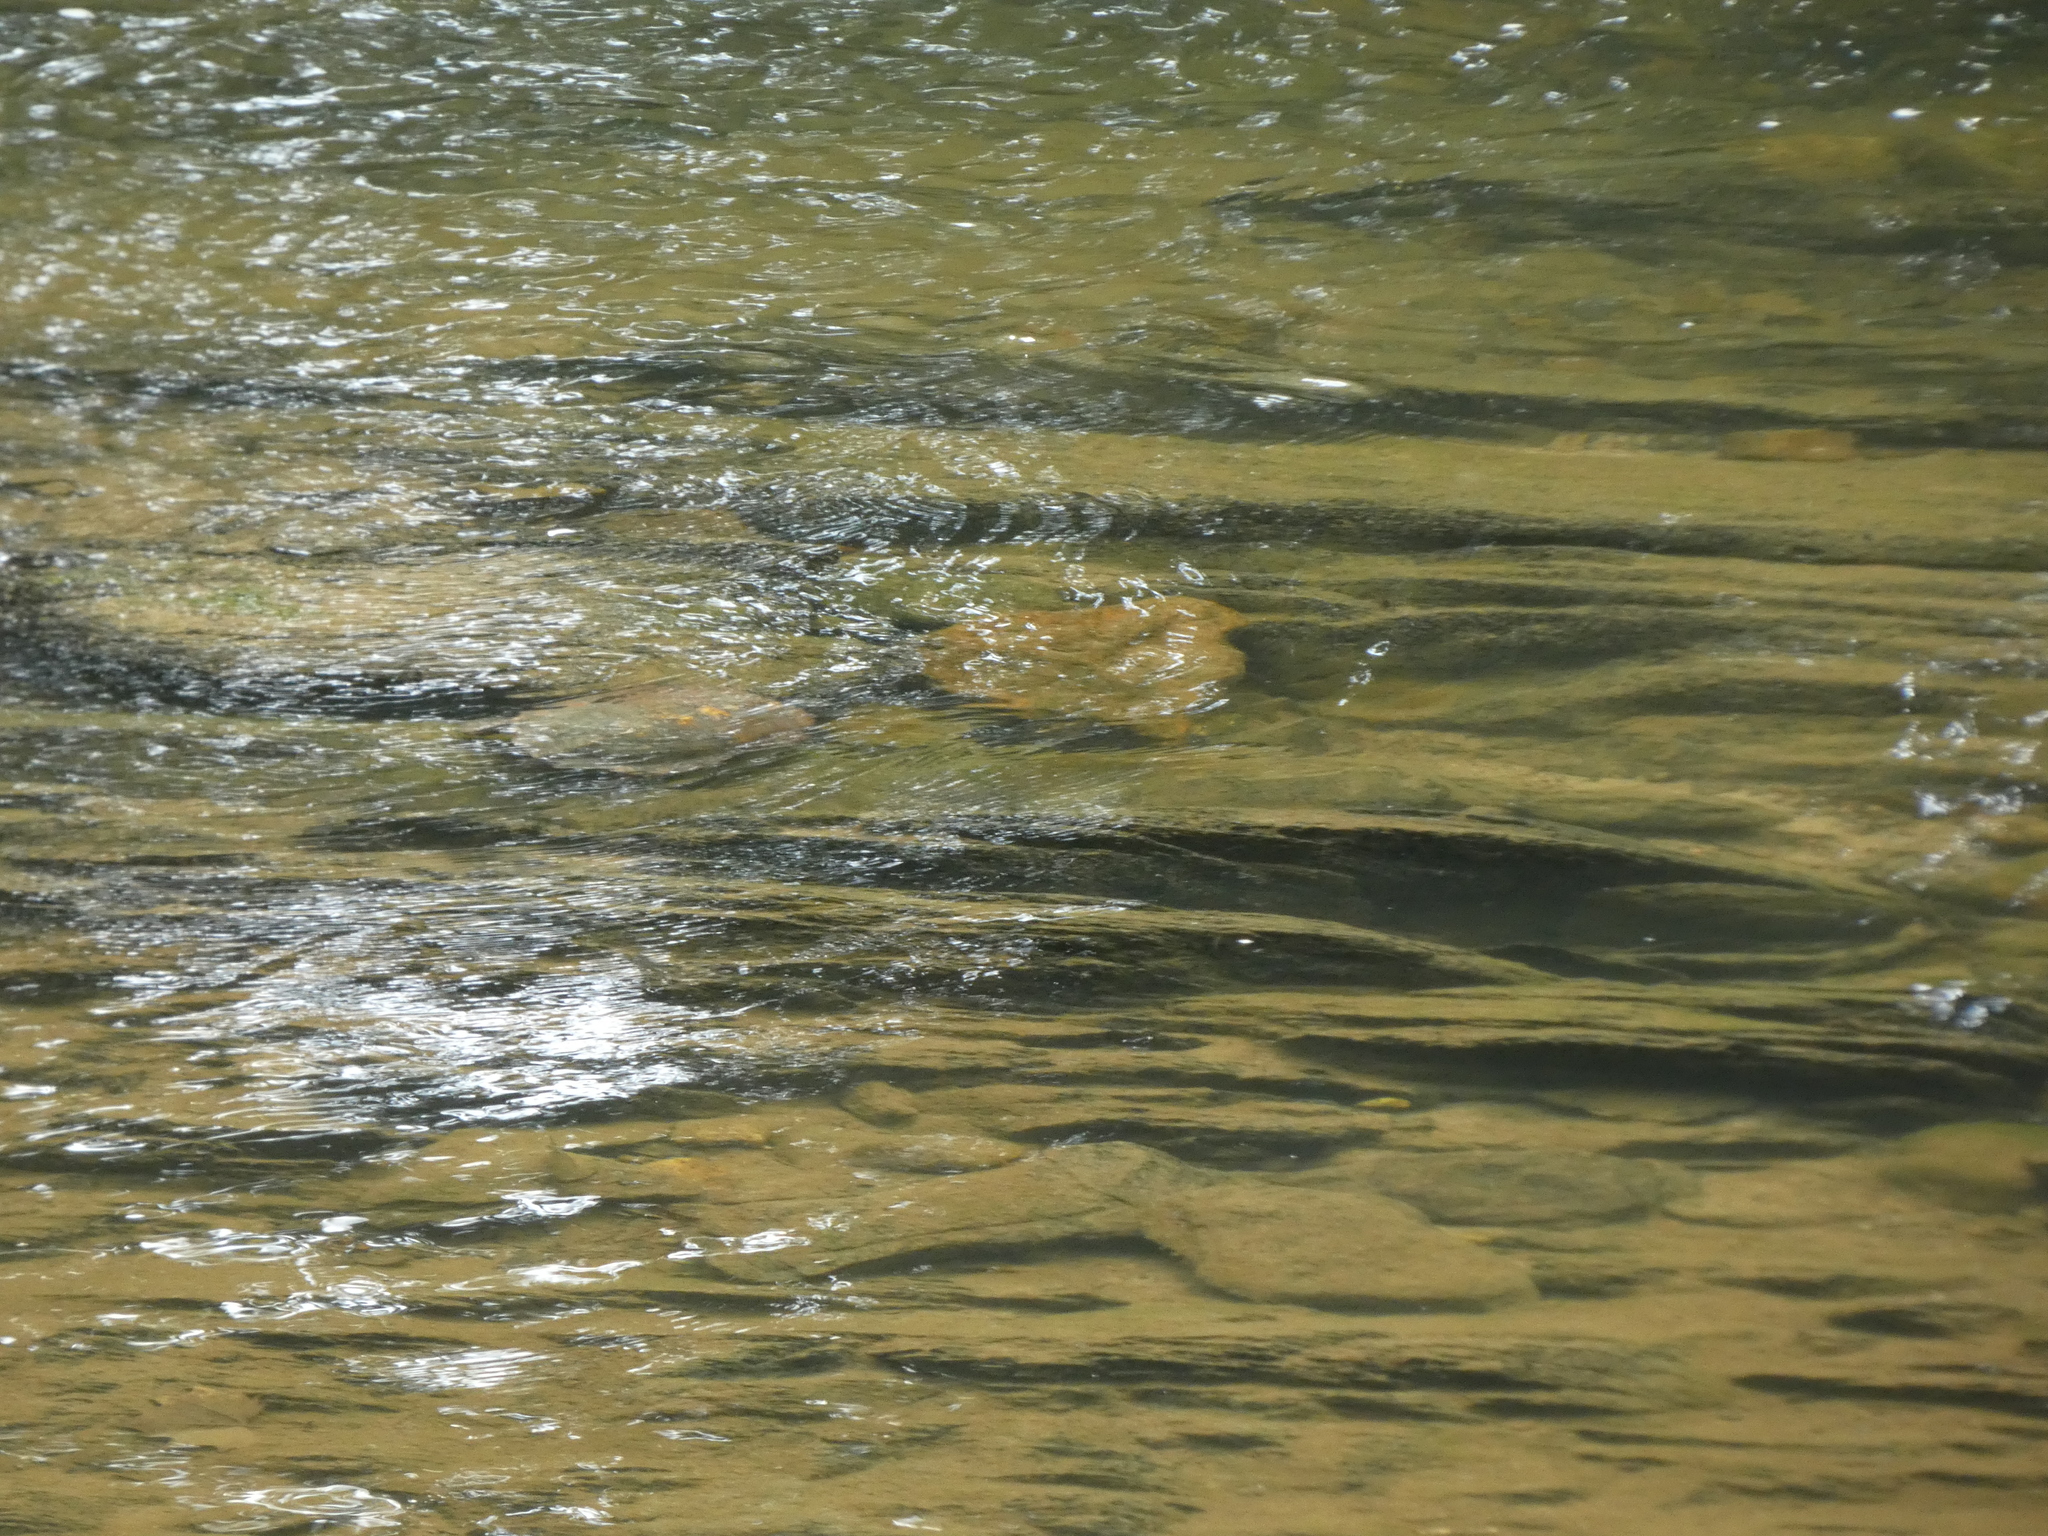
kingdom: Animalia
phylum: Chordata
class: Testudines
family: Emydidae
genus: Glyptemys
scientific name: Glyptemys insculpta
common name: Wood turtle
